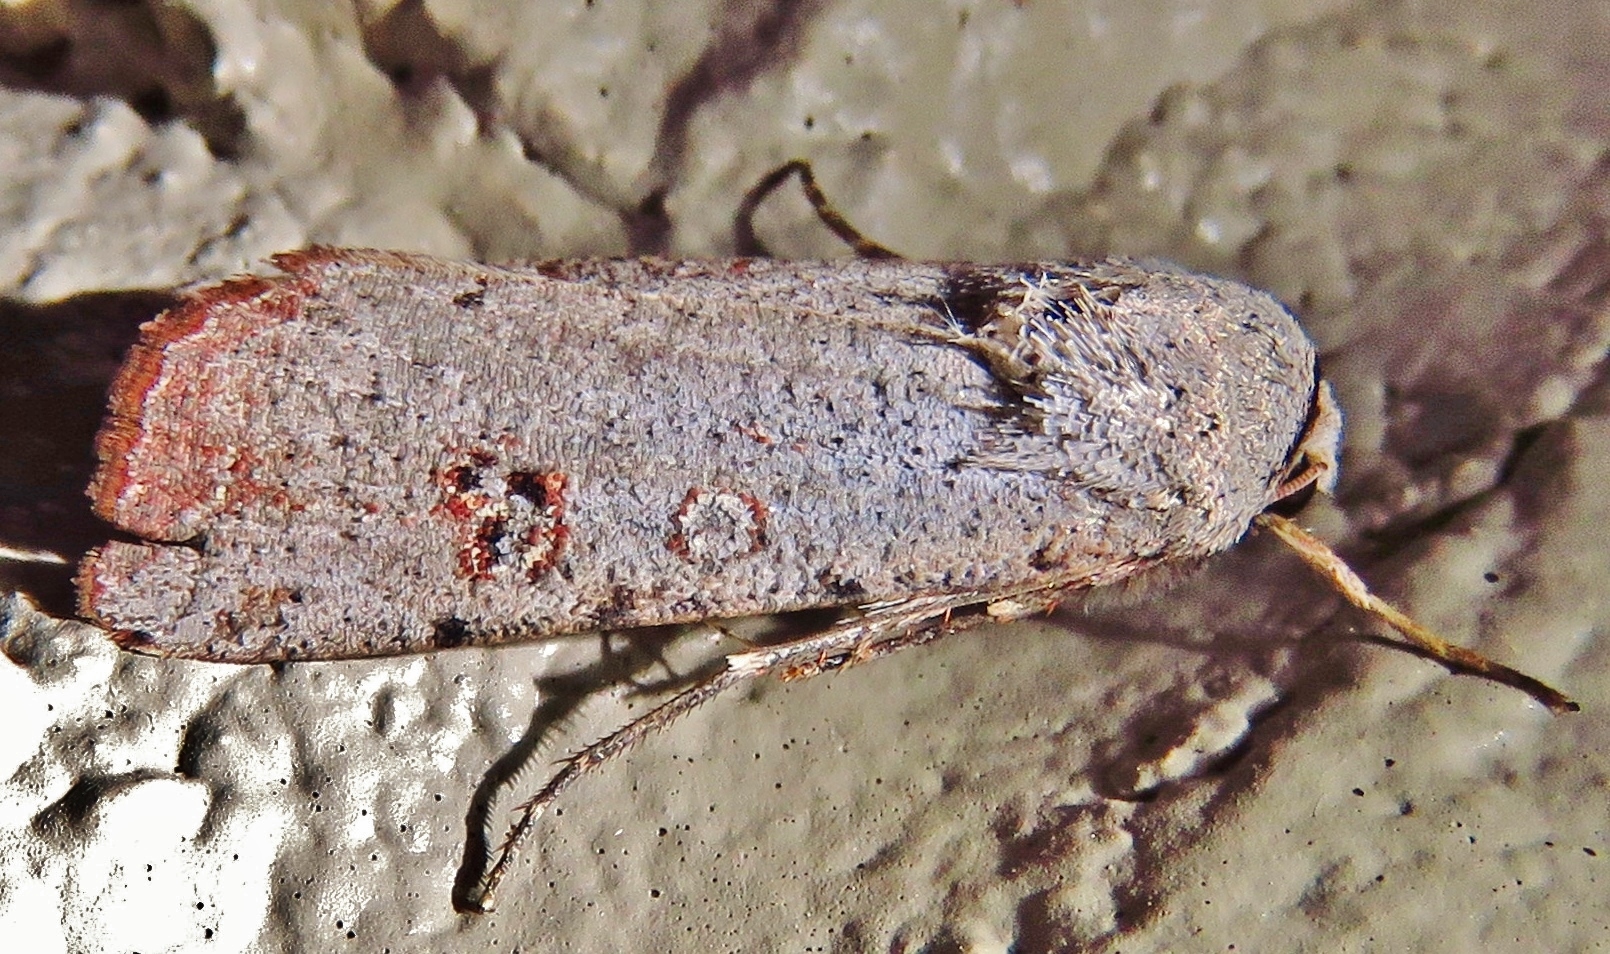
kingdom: Animalia
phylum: Arthropoda
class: Insecta
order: Lepidoptera
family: Noctuidae
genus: Anicla
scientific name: Anicla infecta
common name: Green cutworm
